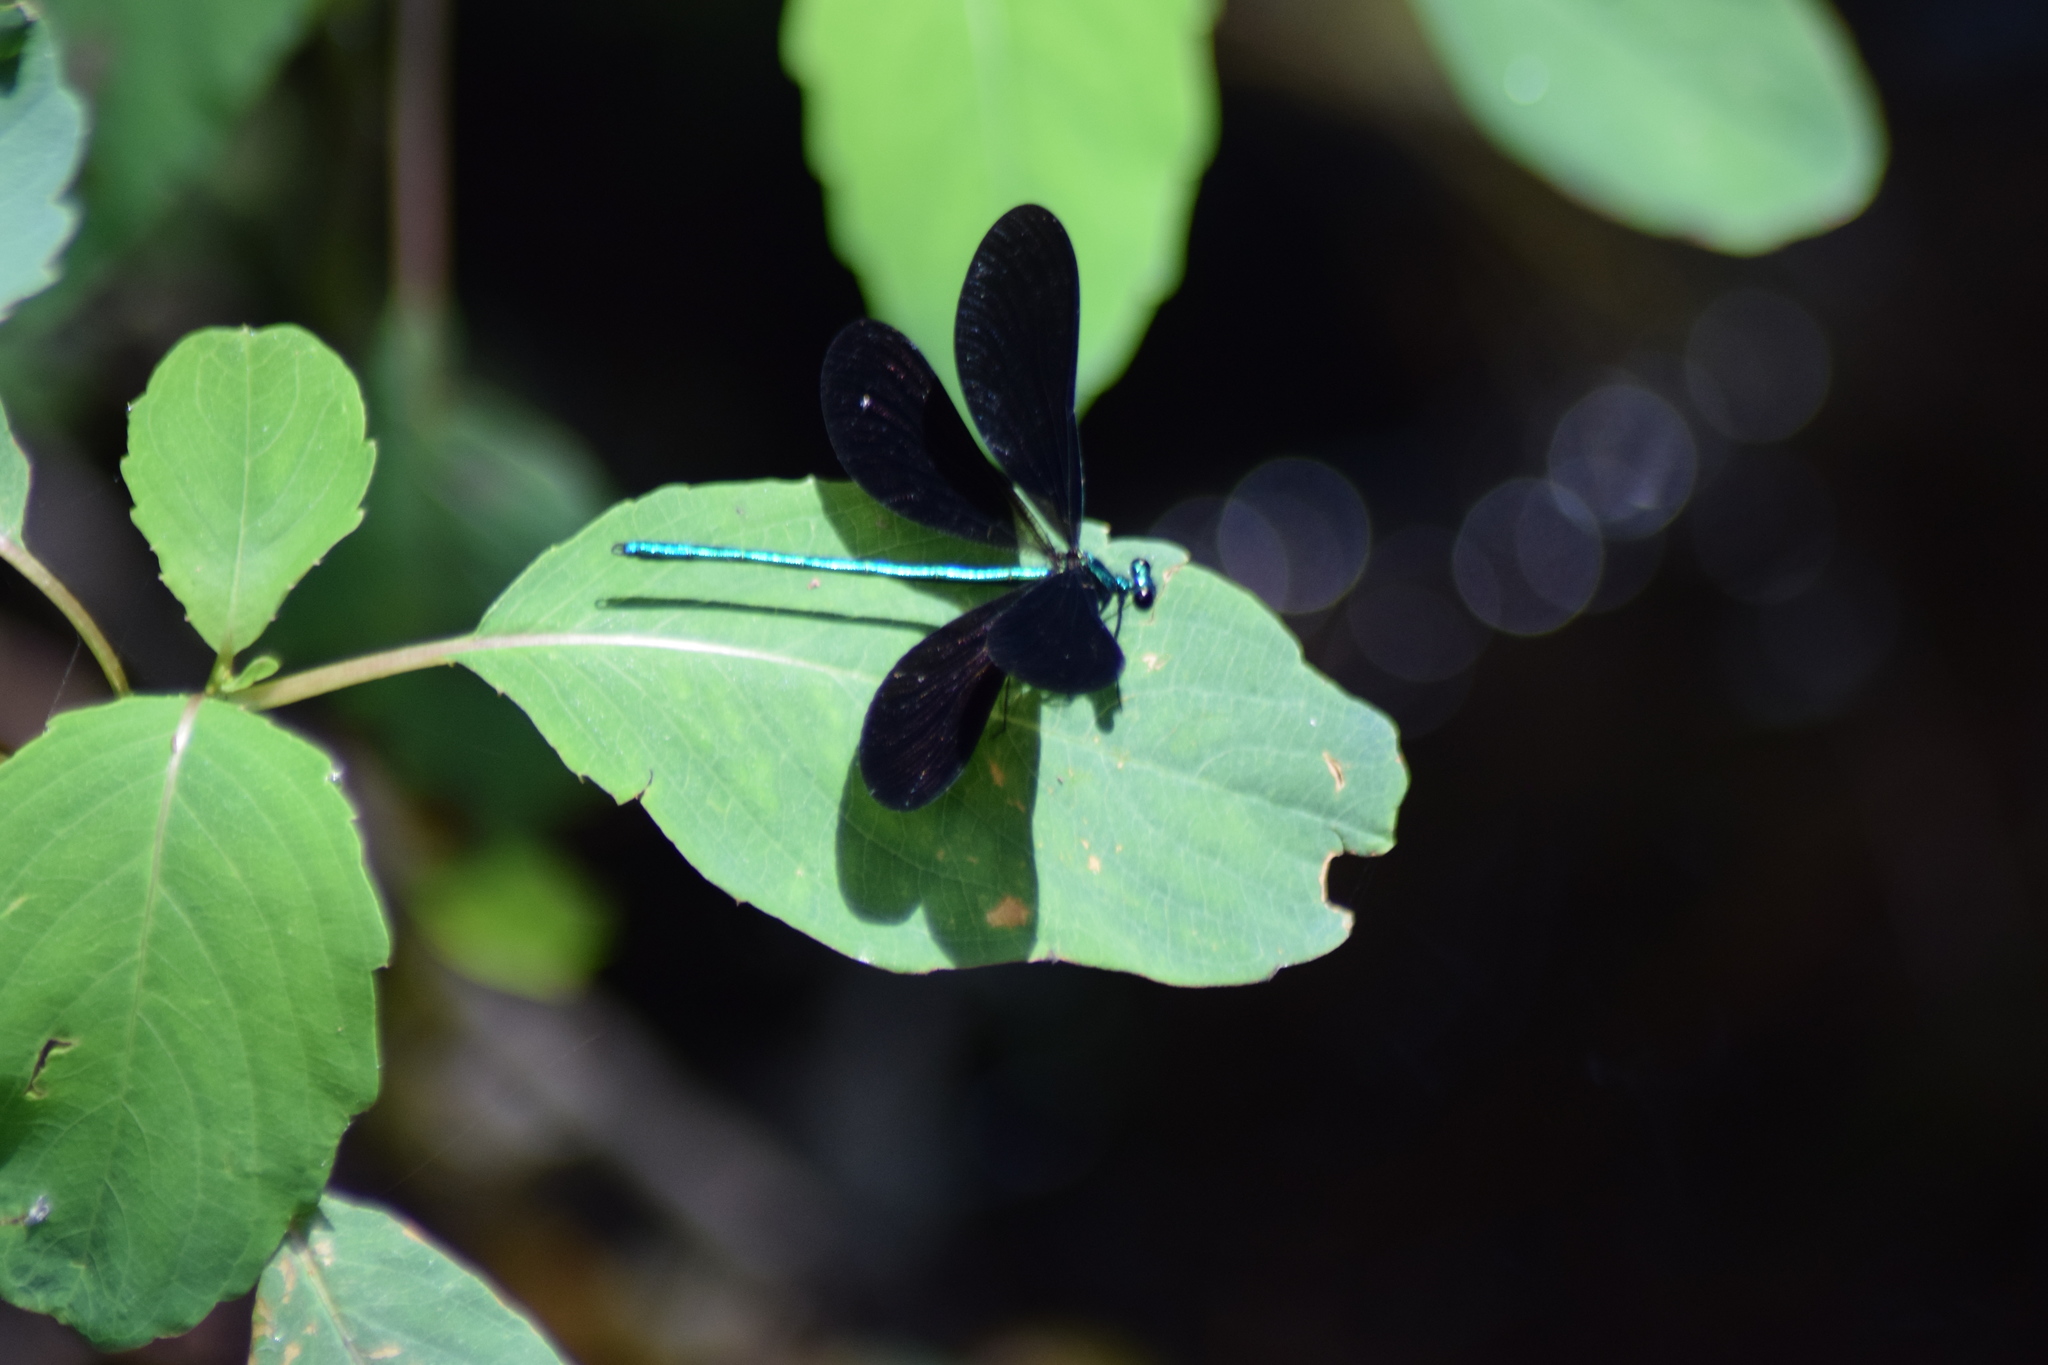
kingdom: Animalia
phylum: Arthropoda
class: Insecta
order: Odonata
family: Calopterygidae
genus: Calopteryx
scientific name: Calopteryx maculata
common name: Ebony jewelwing
